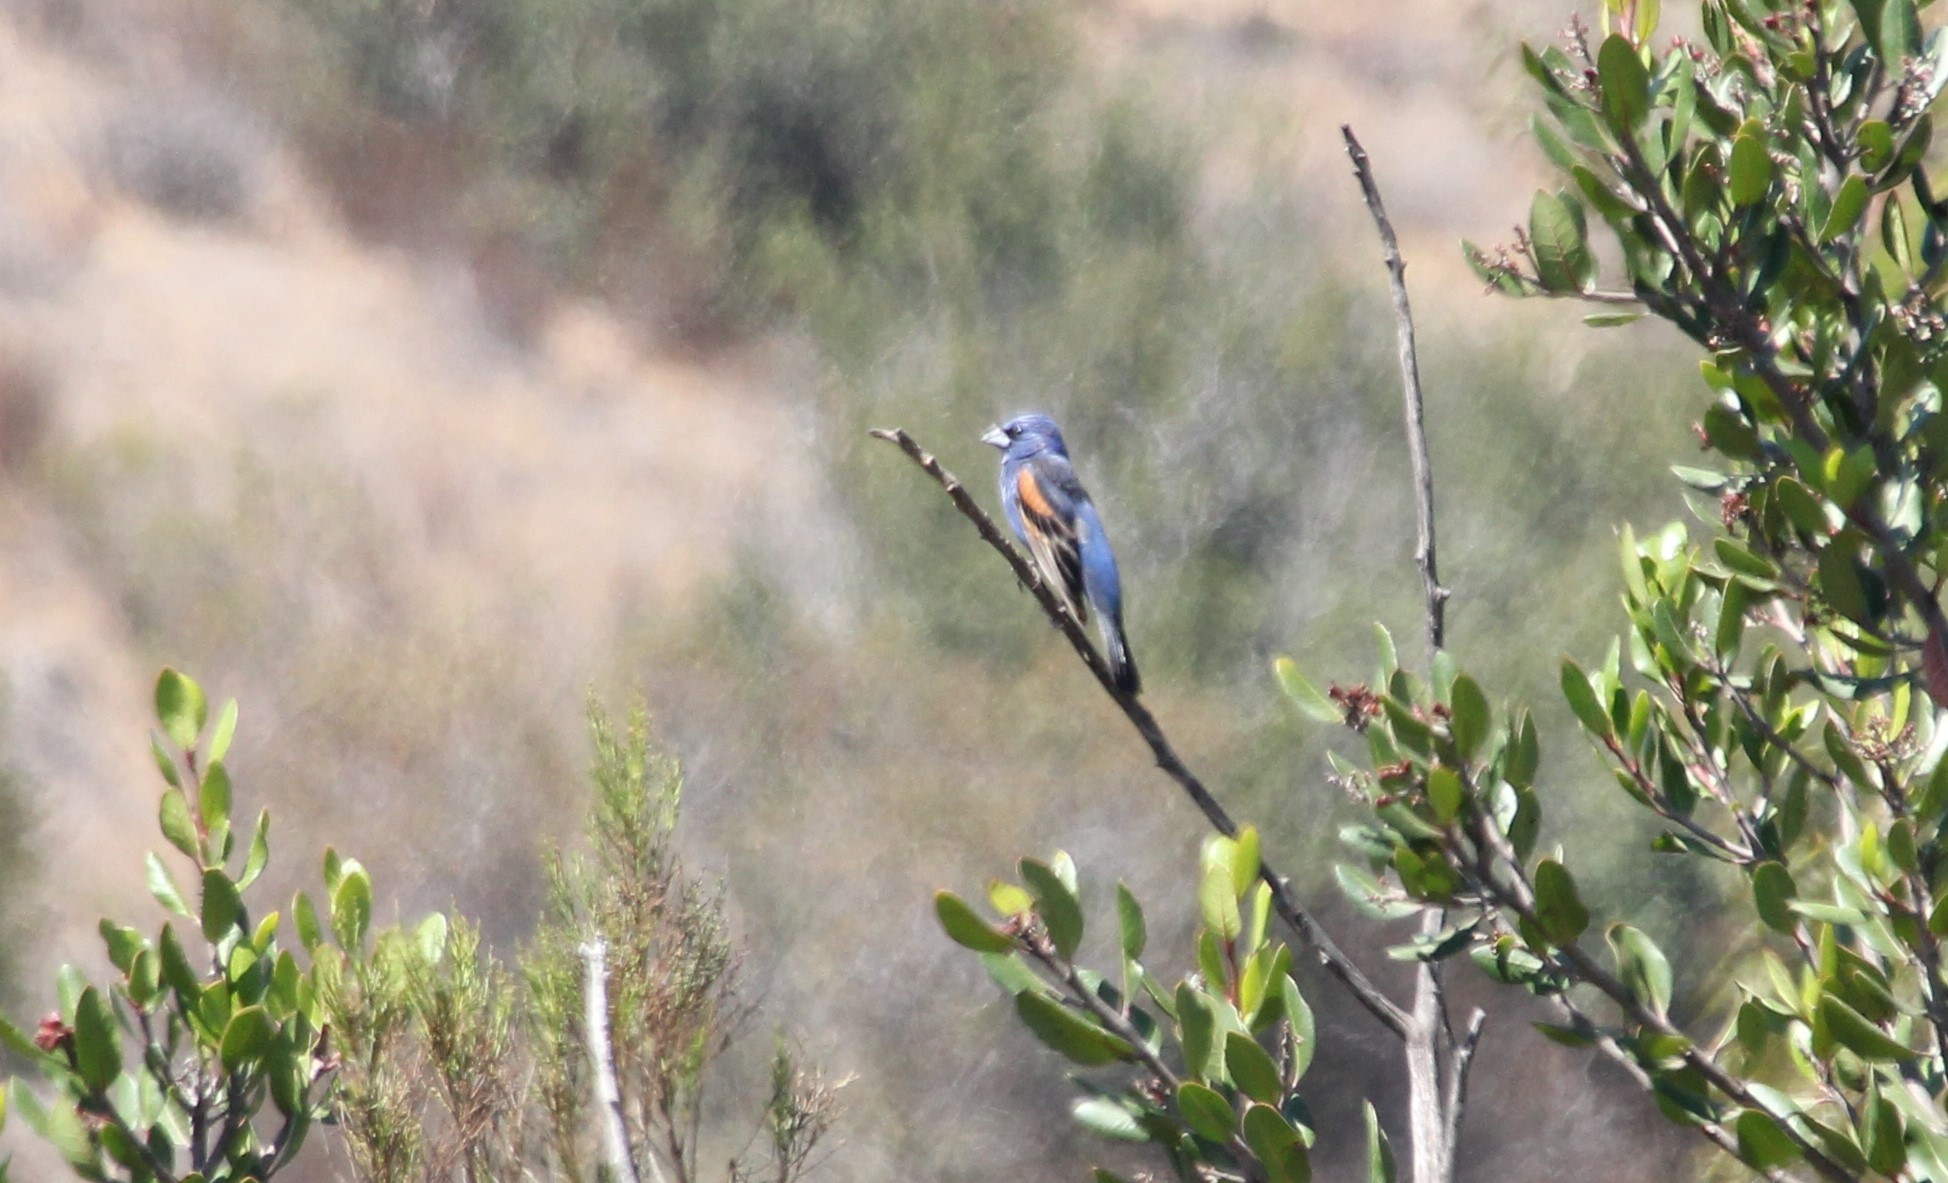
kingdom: Animalia
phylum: Chordata
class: Aves
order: Passeriformes
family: Cardinalidae
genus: Passerina
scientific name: Passerina caerulea
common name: Blue grosbeak
